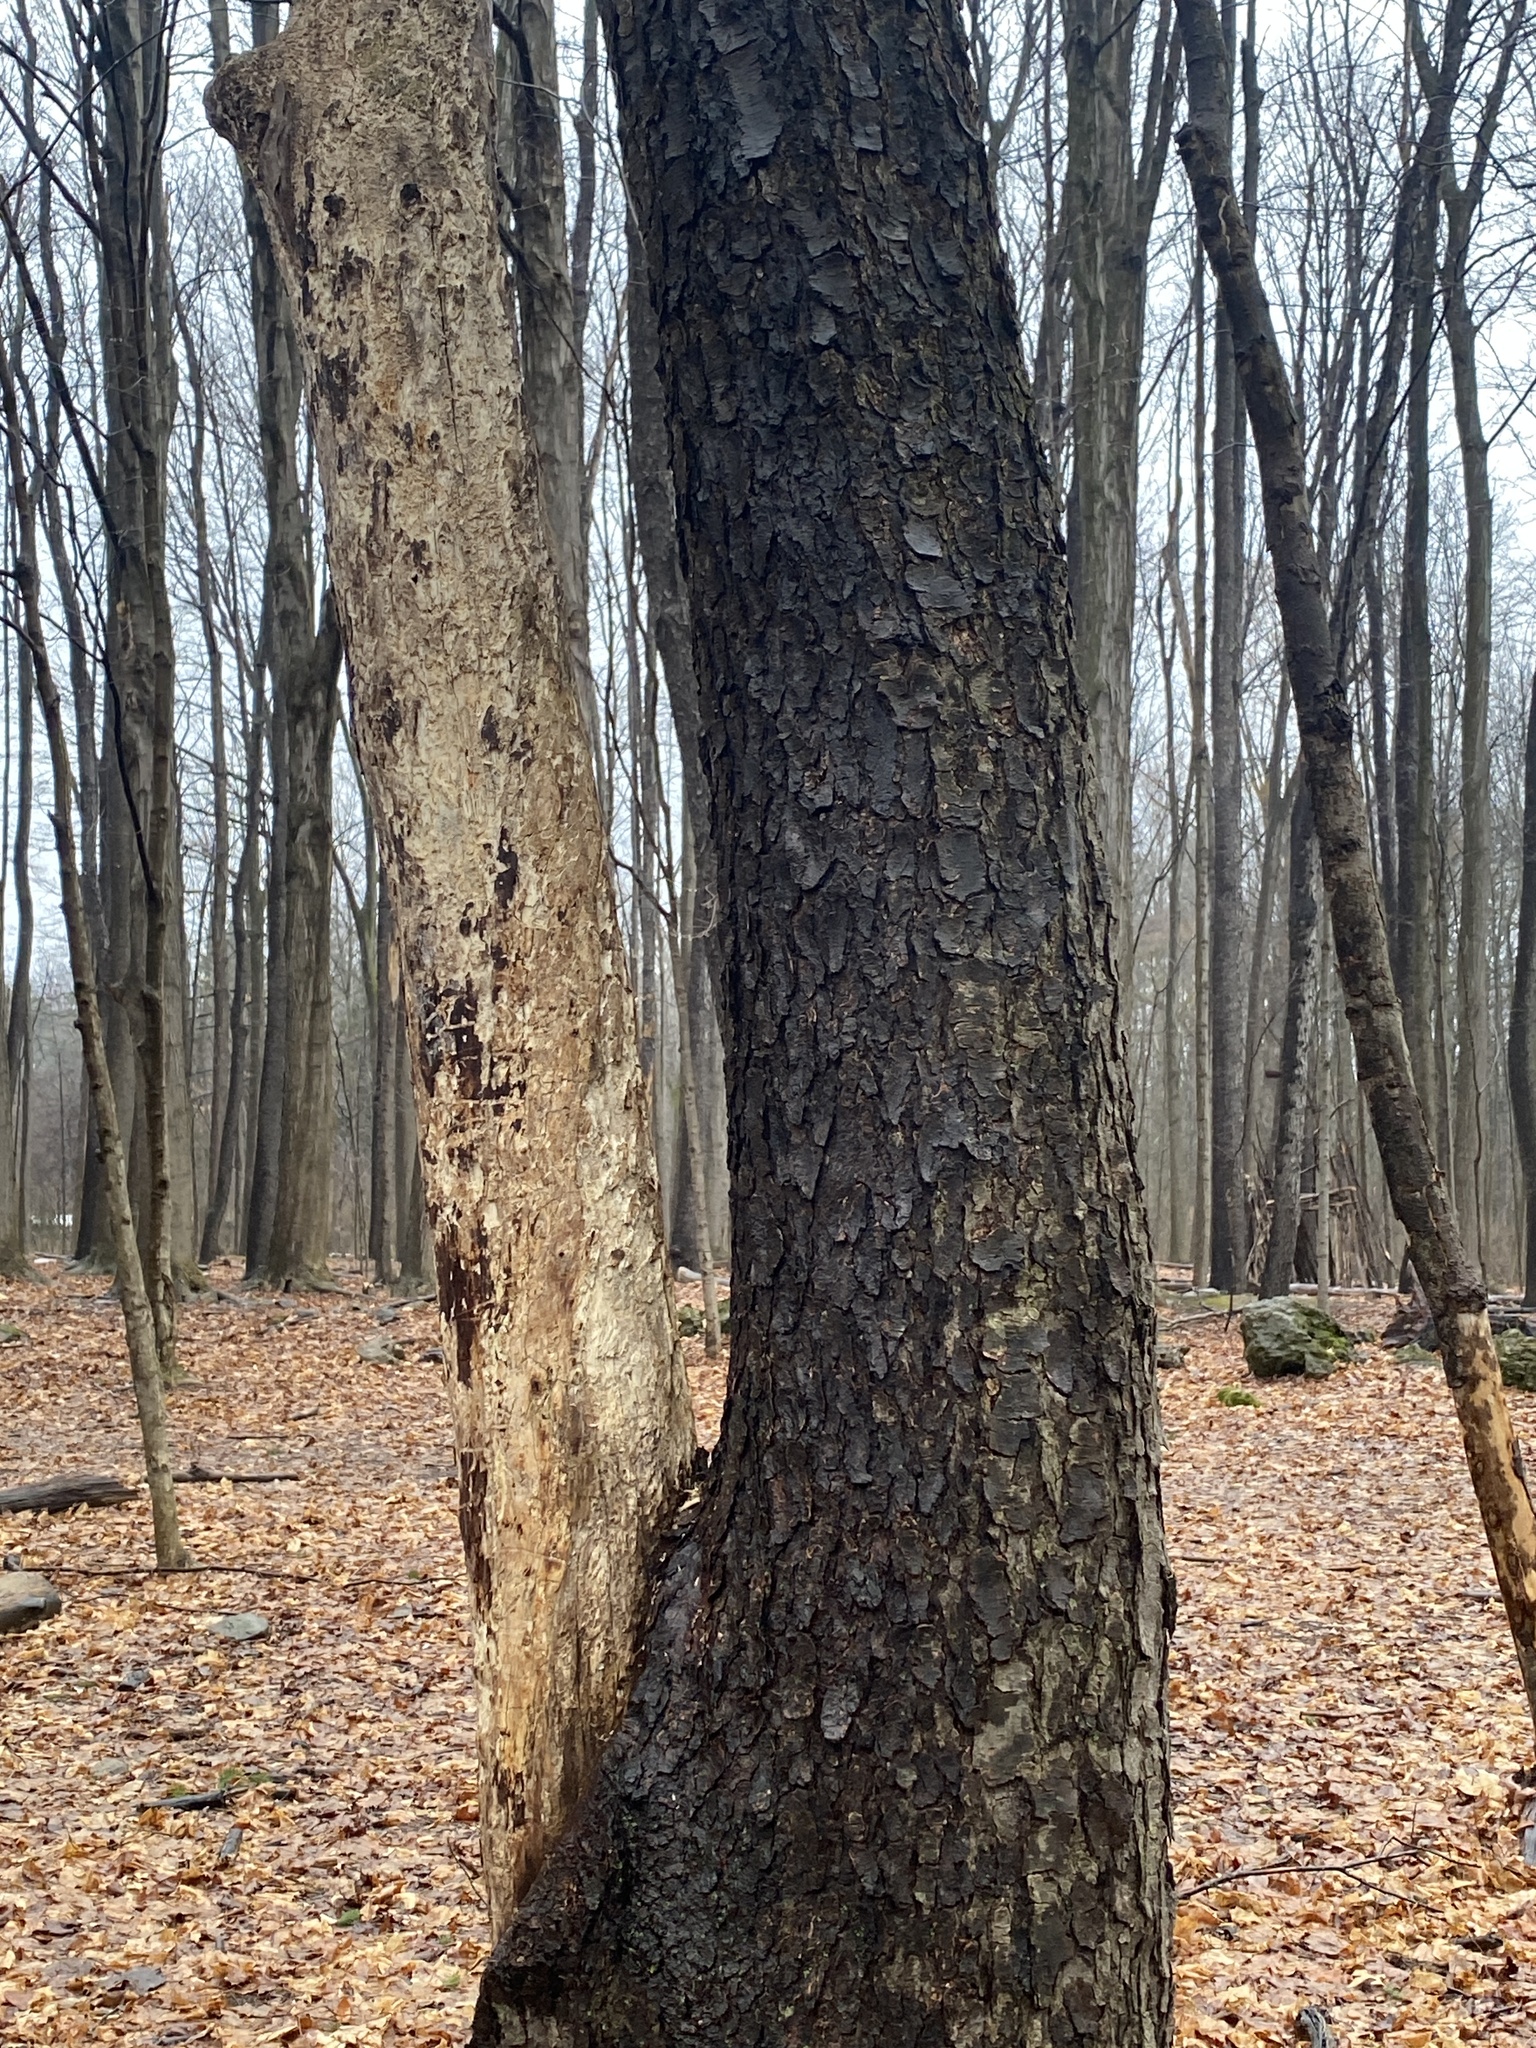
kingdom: Plantae
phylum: Tracheophyta
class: Magnoliopsida
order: Rosales
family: Rosaceae
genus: Prunus
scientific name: Prunus serotina
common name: Black cherry
